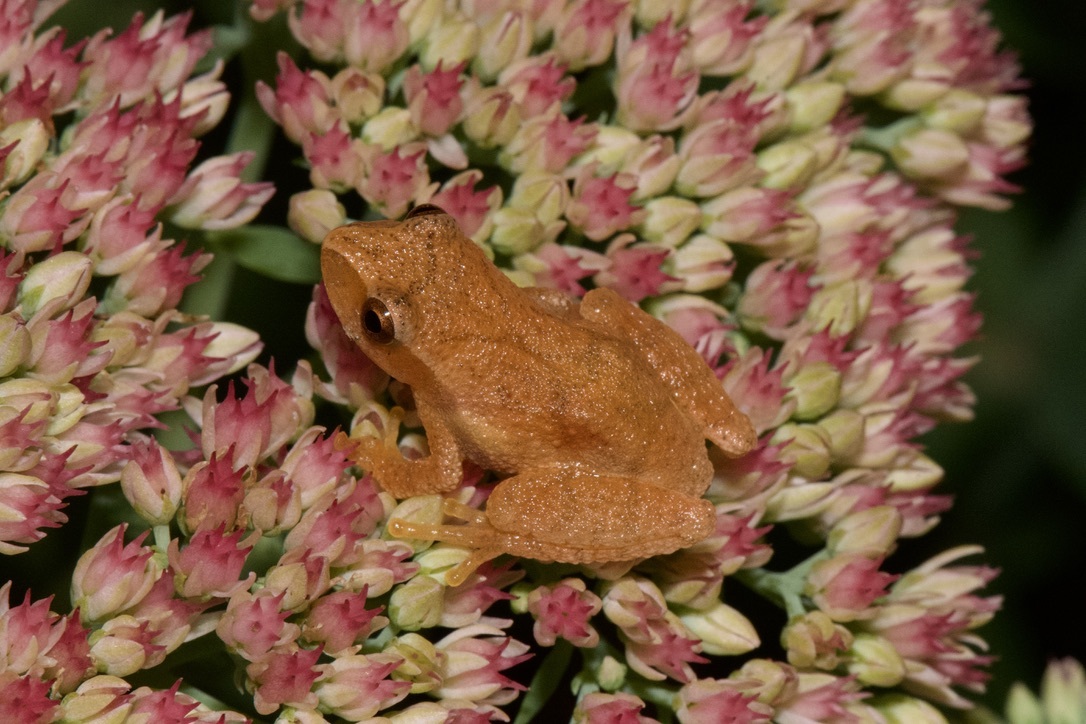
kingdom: Animalia
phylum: Chordata
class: Amphibia
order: Anura
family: Hylidae
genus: Pseudacris
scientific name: Pseudacris crucifer
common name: Spring peeper
